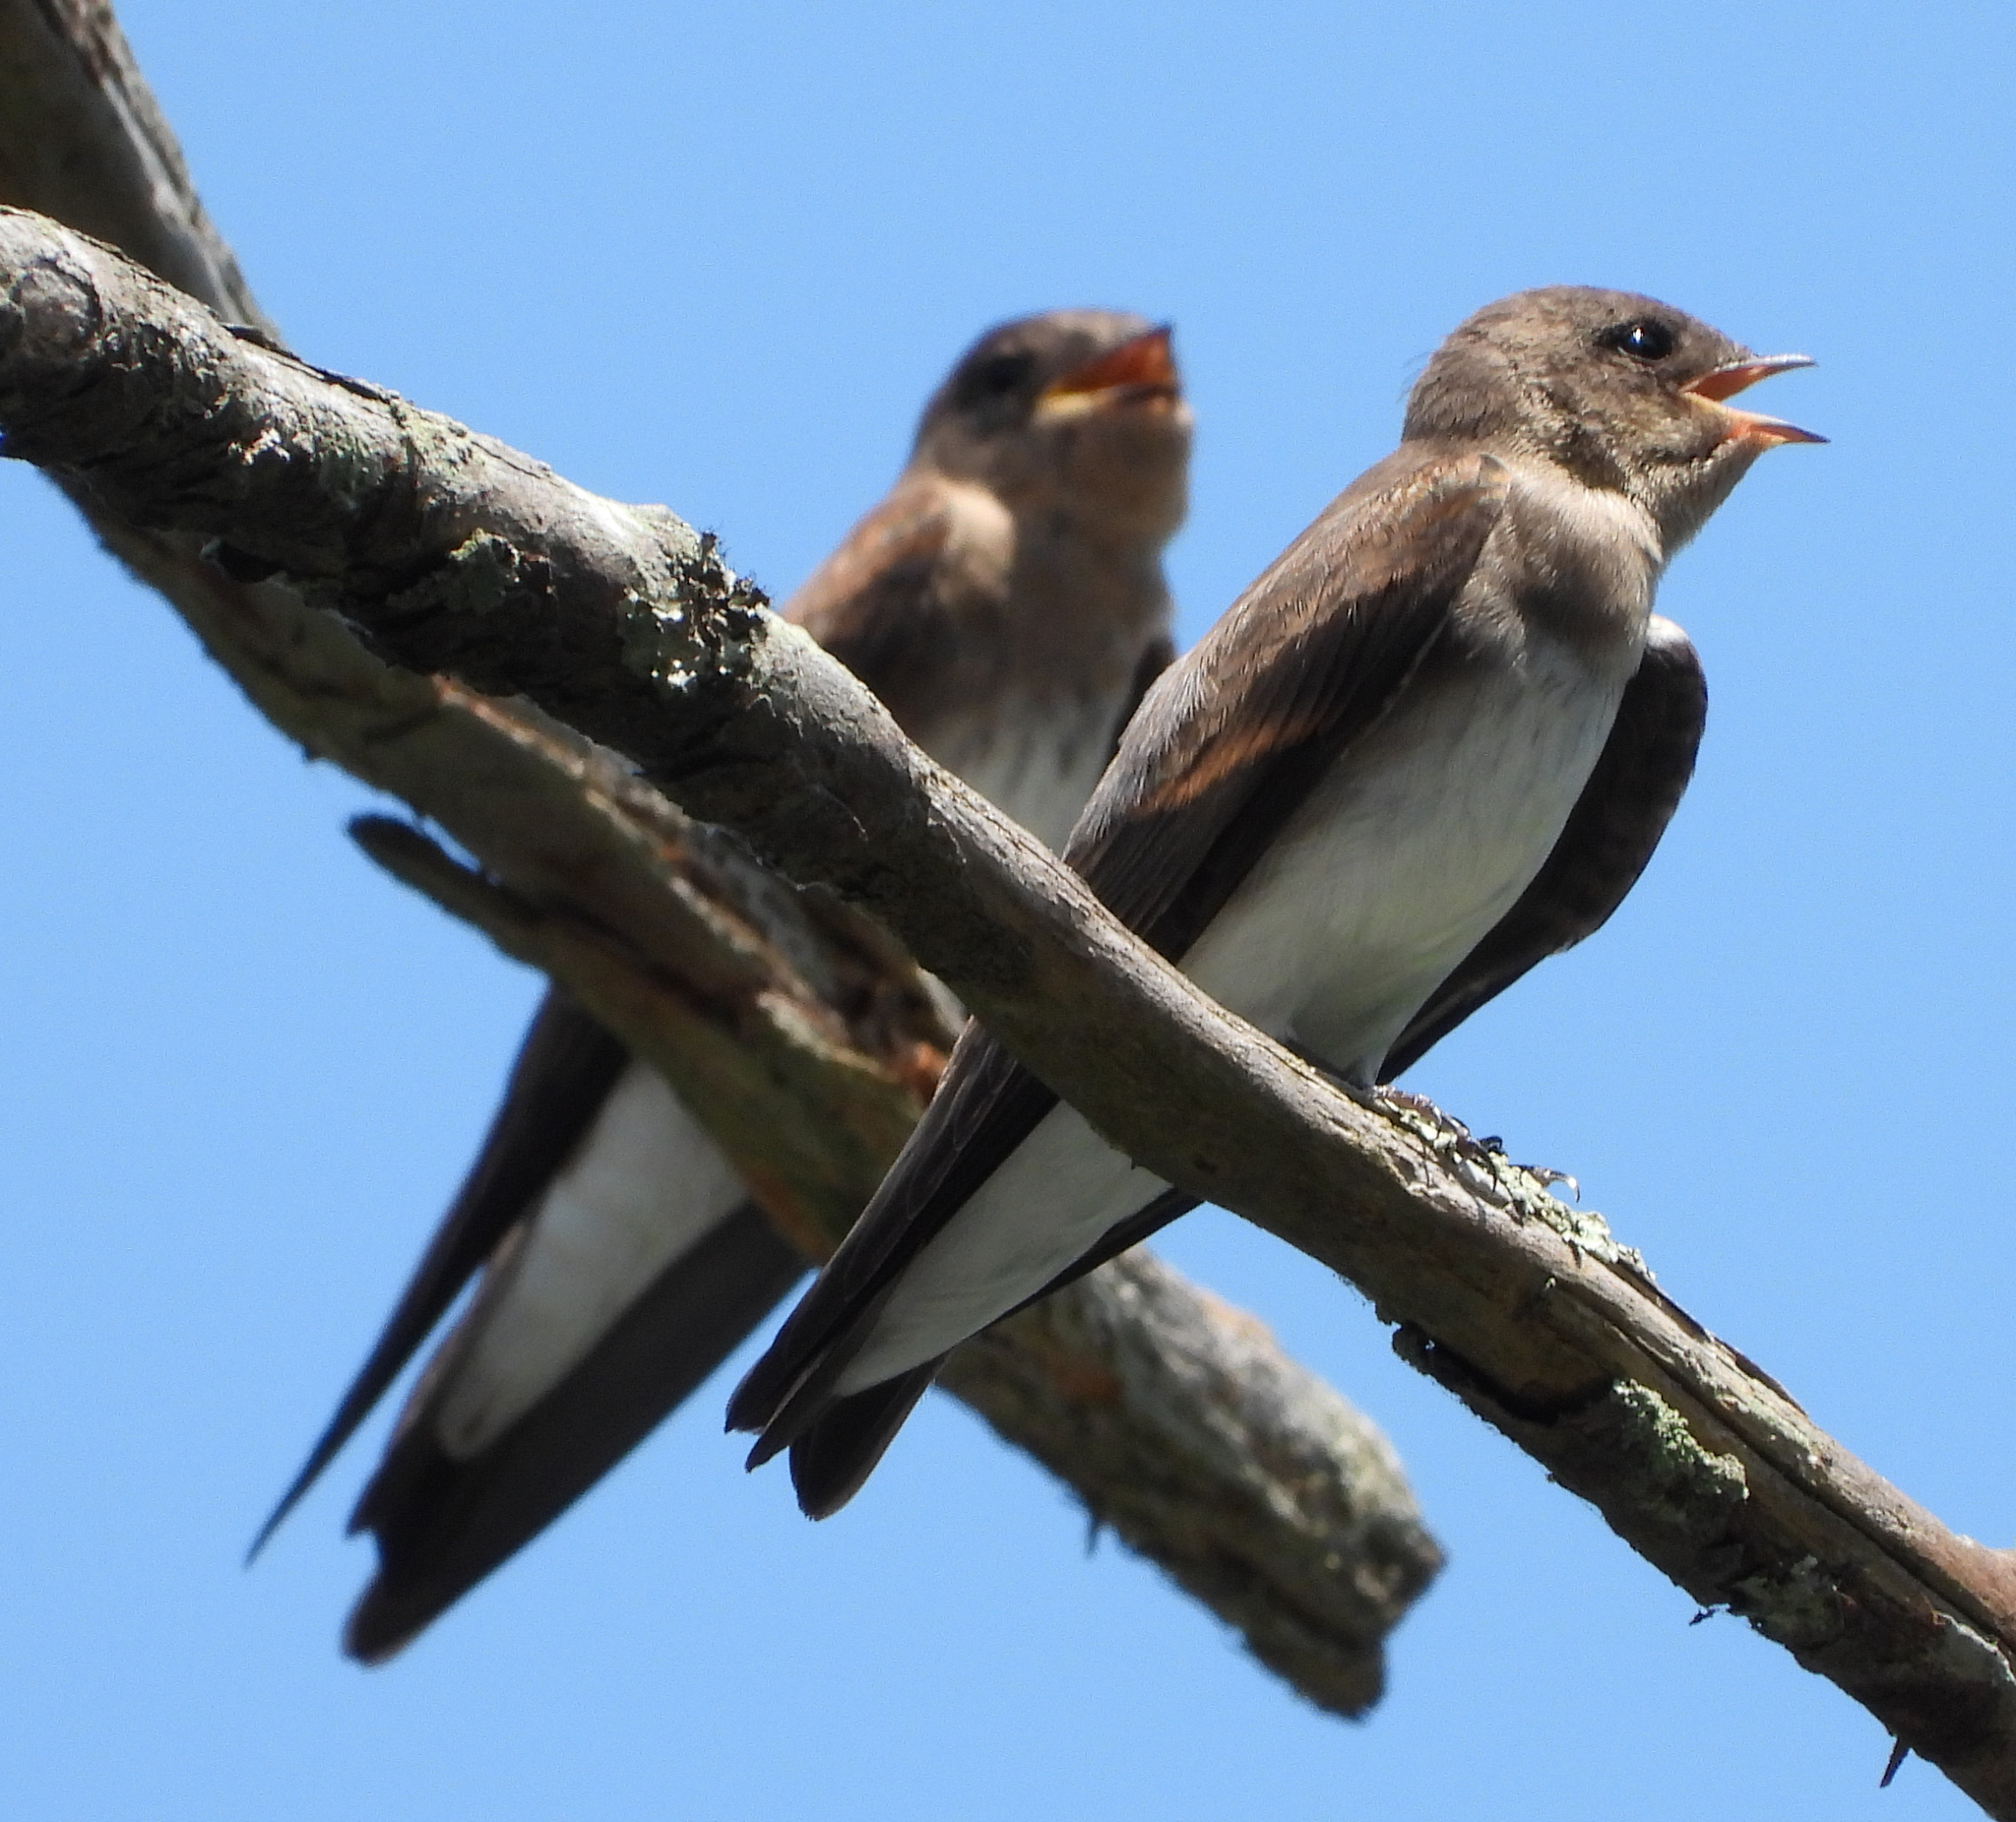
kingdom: Animalia
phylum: Chordata
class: Aves
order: Passeriformes
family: Hirundinidae
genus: Stelgidopteryx
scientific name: Stelgidopteryx serripennis
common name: Northern rough-winged swallow
